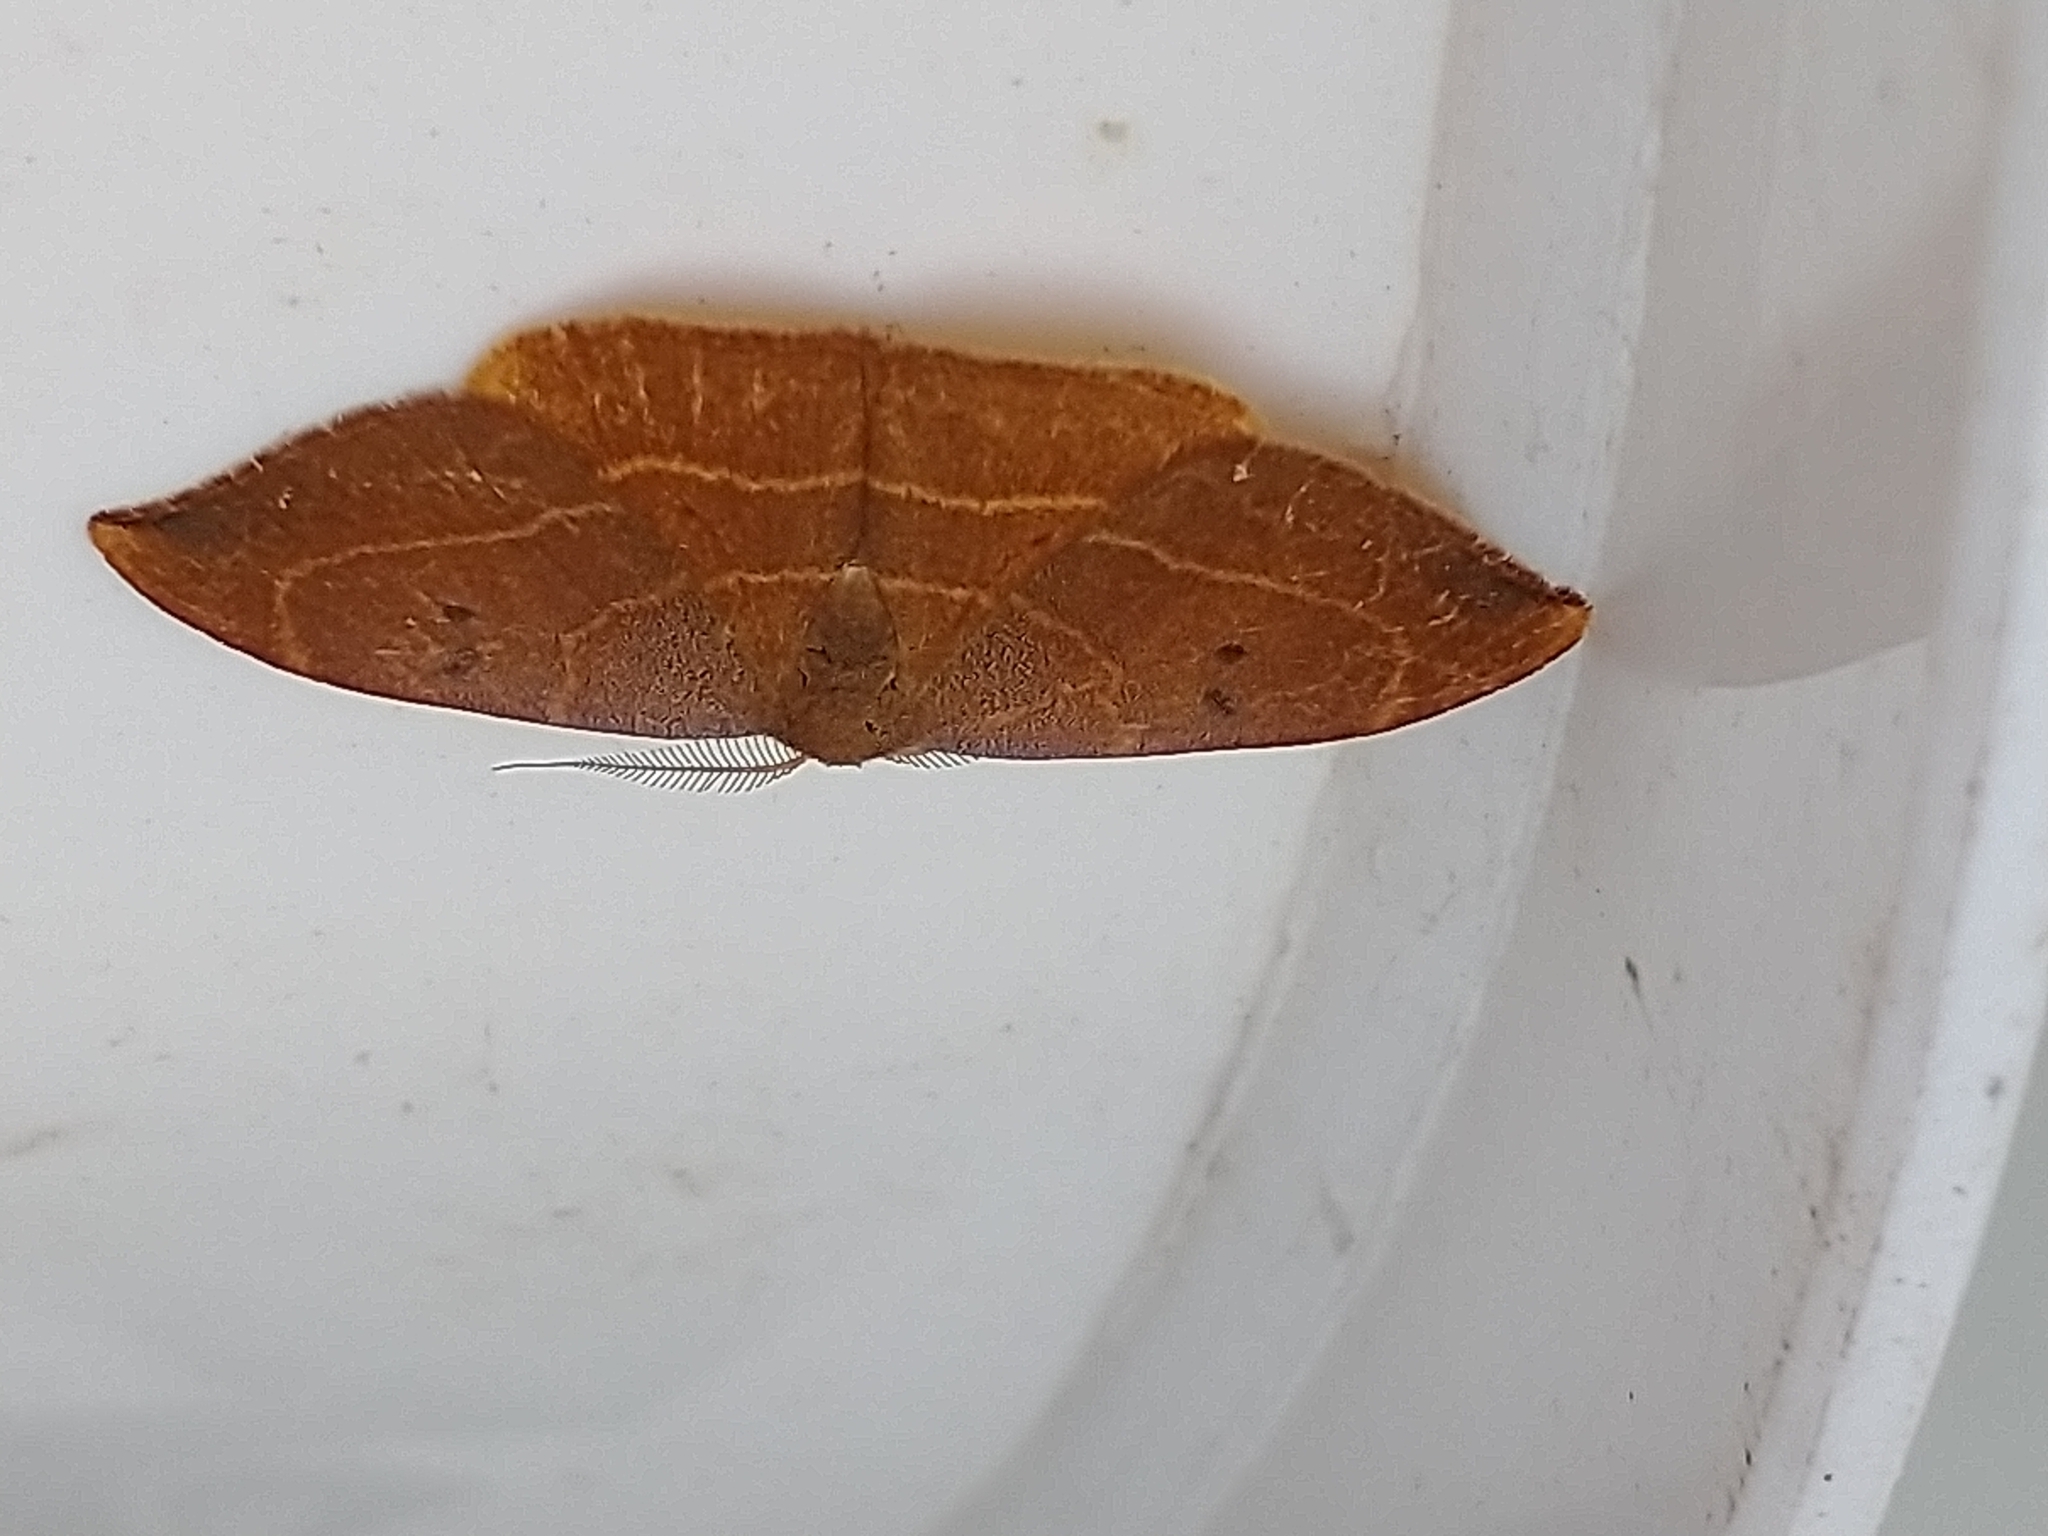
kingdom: Animalia
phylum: Arthropoda
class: Insecta
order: Lepidoptera
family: Drepanidae
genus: Watsonalla
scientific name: Watsonalla binaria
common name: Oak hook-tip
